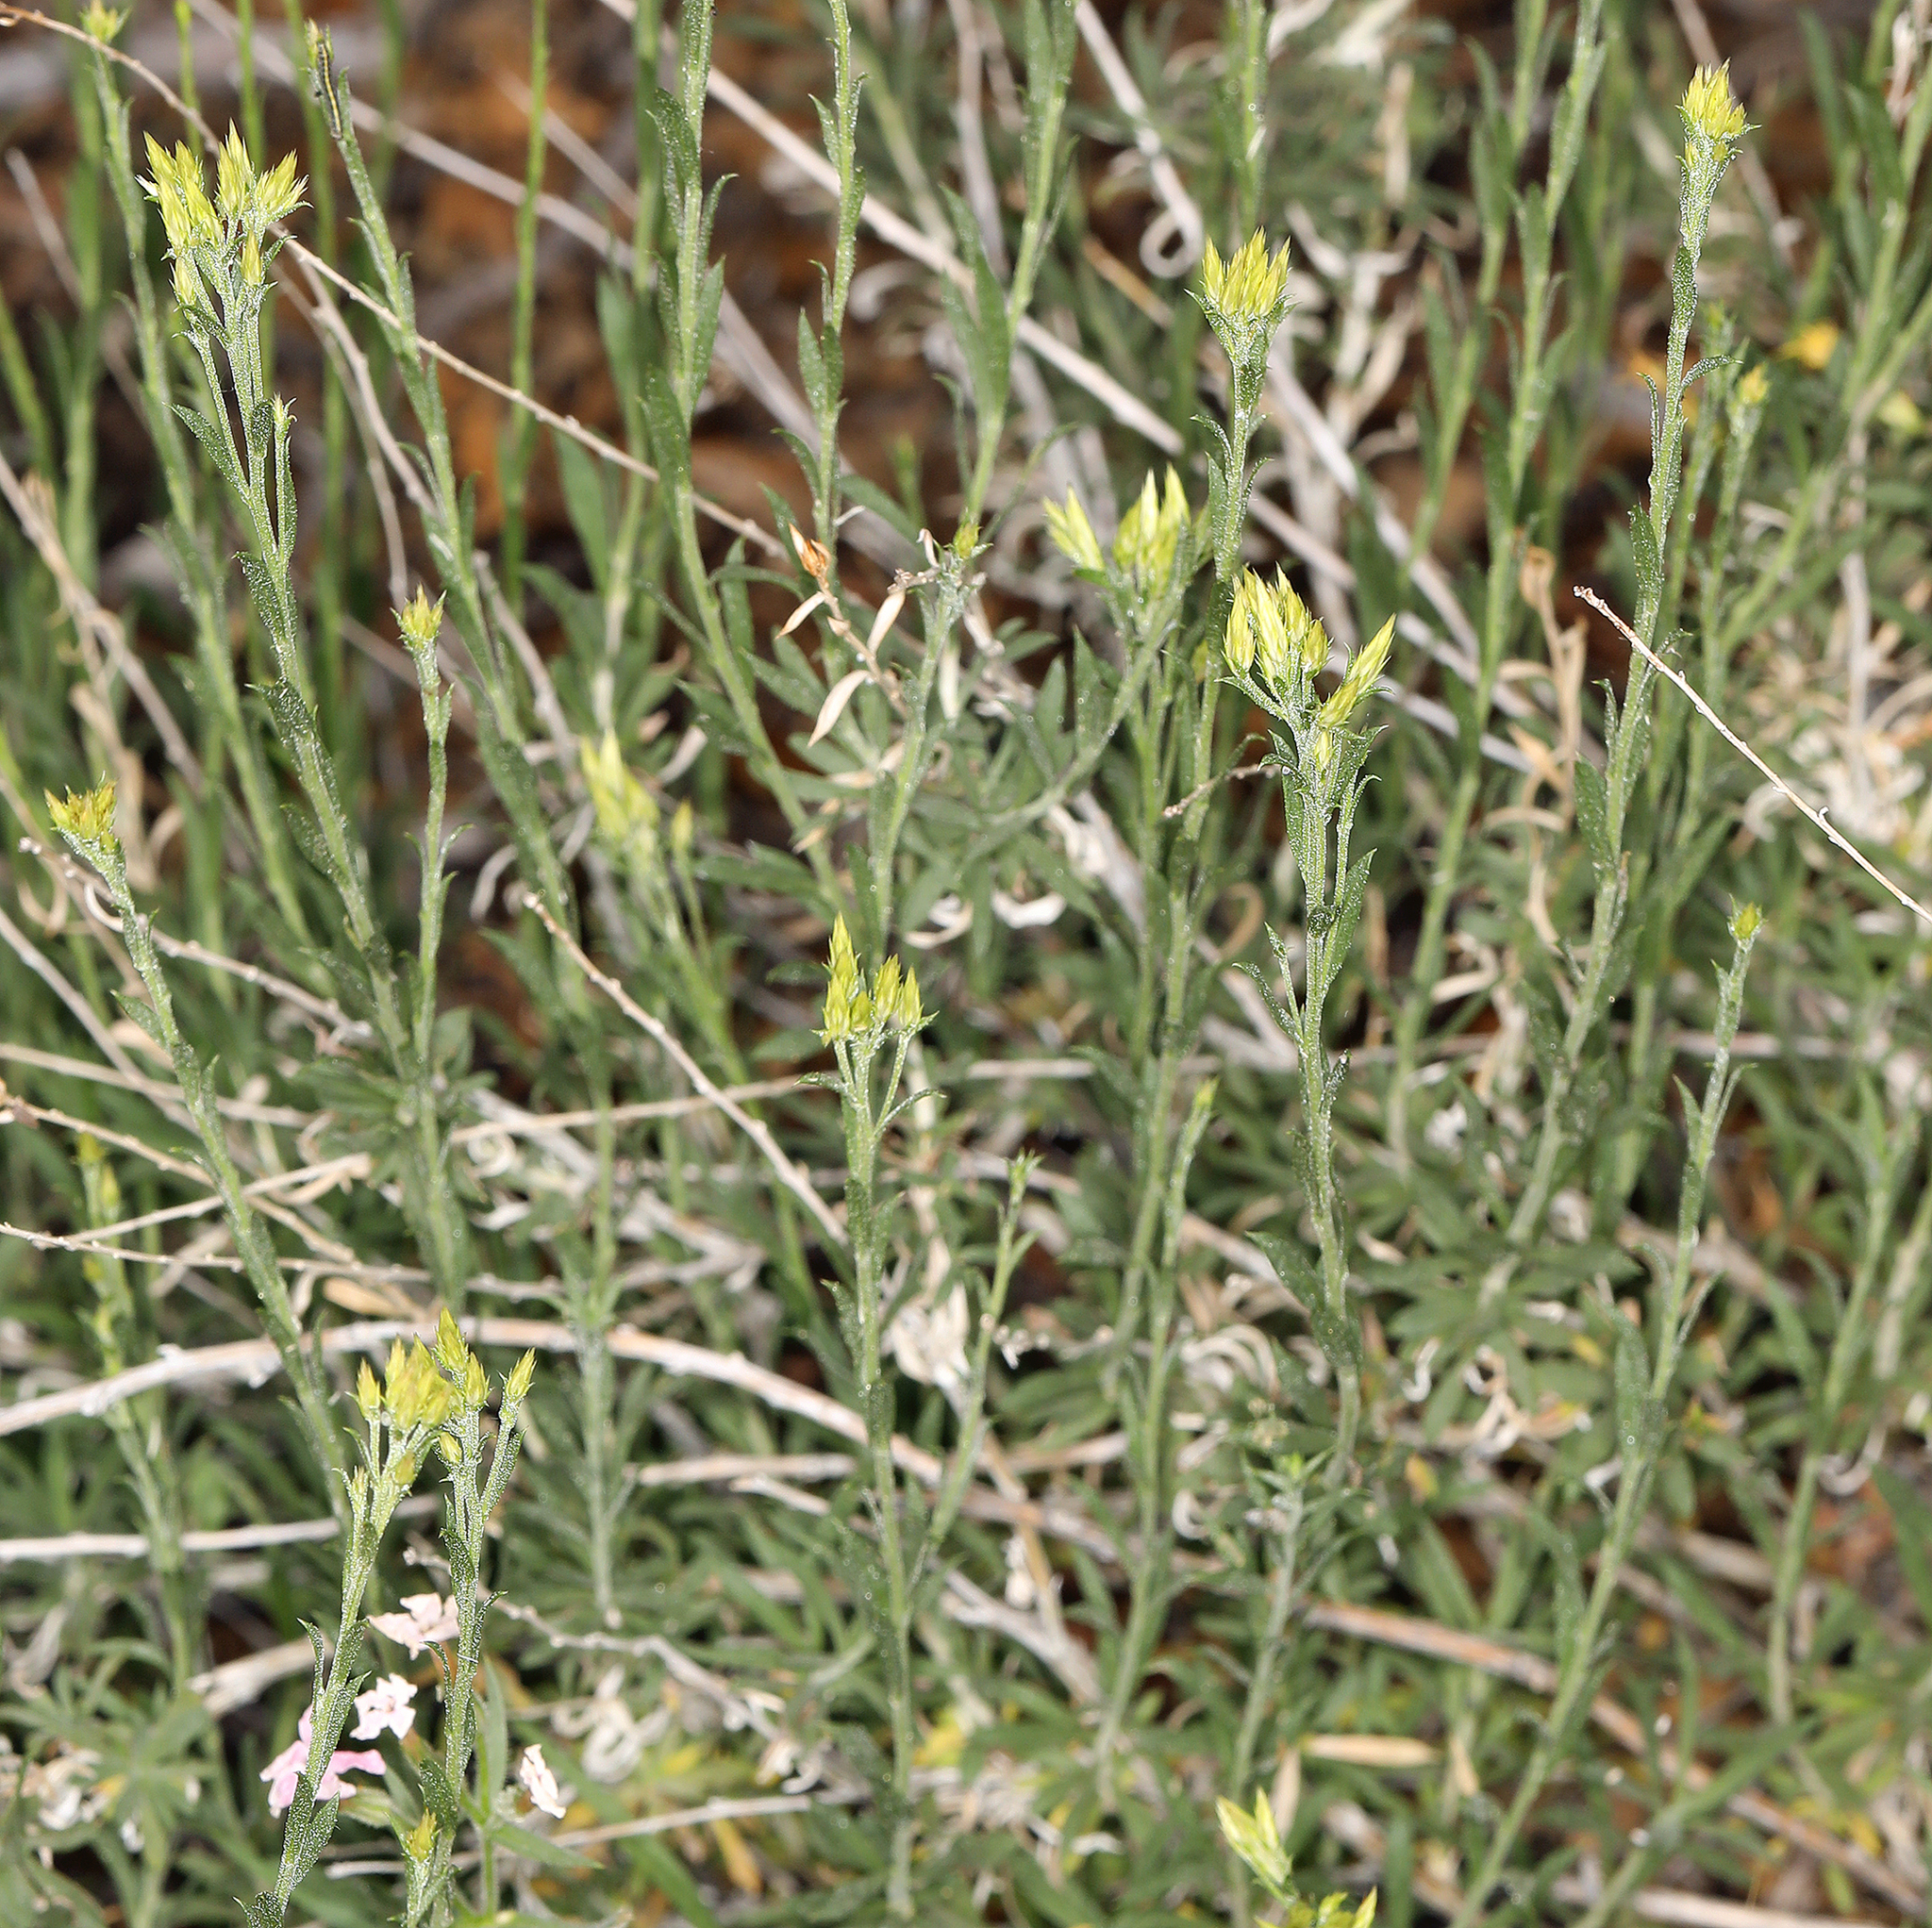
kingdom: Plantae
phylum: Tracheophyta
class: Magnoliopsida
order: Asterales
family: Asteraceae
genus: Chrysothamnus
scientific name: Chrysothamnus depressus
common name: Long-flower rabbitbrush
